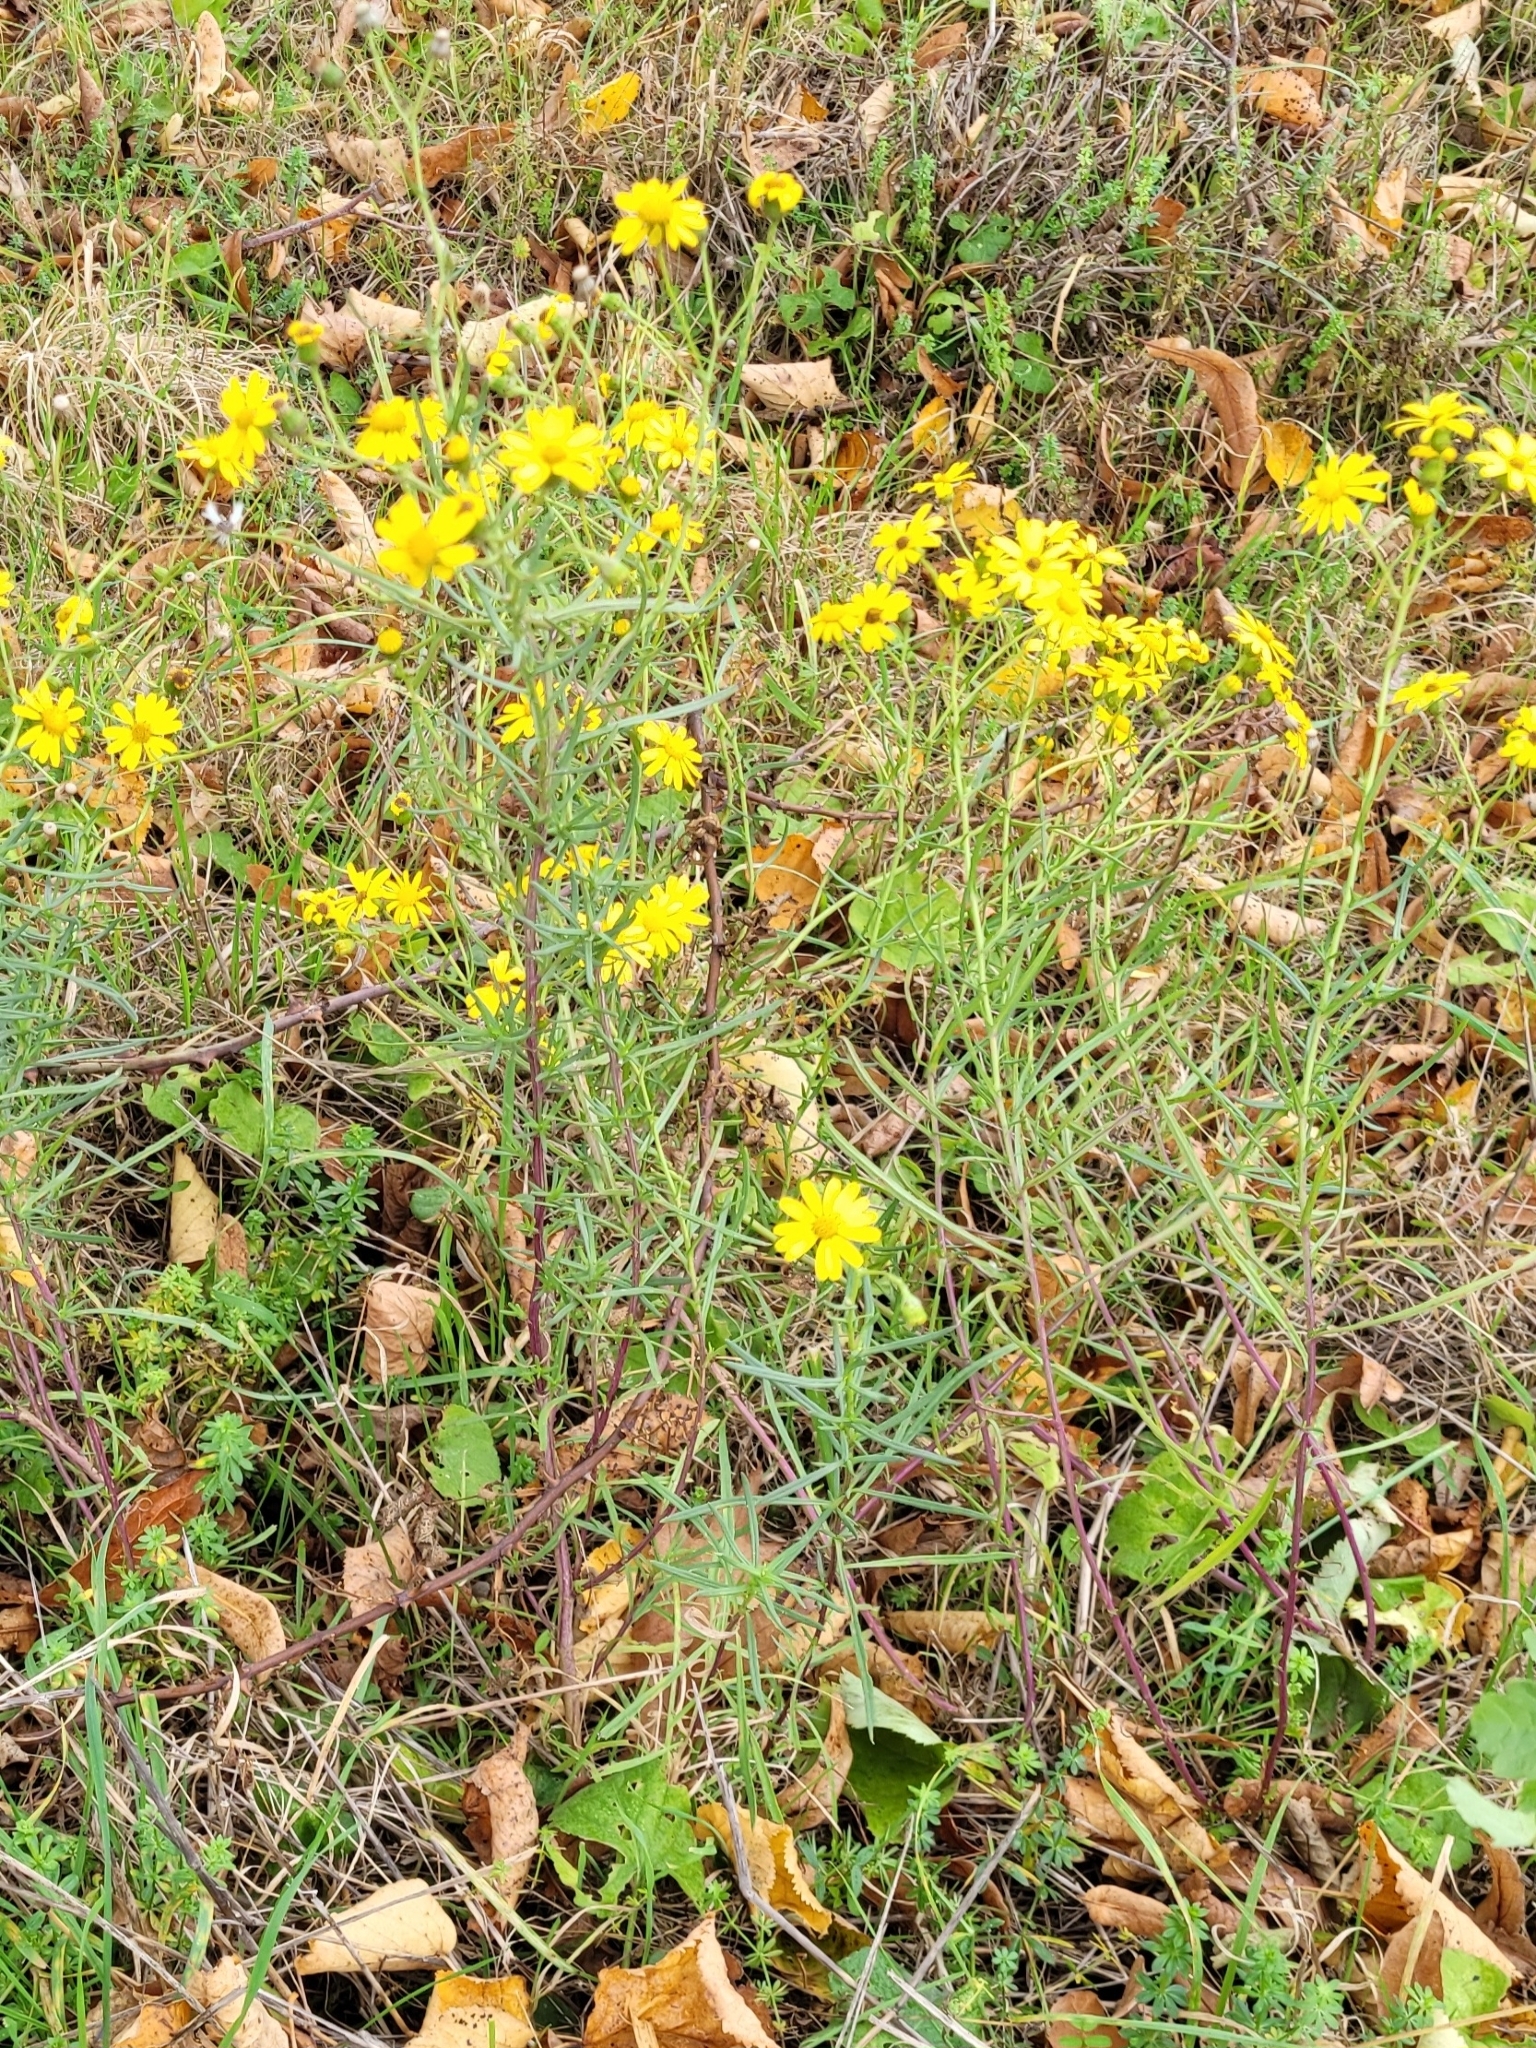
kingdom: Plantae
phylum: Tracheophyta
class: Magnoliopsida
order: Asterales
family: Asteraceae
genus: Senecio
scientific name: Senecio inaequidens
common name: Narrow-leaved ragwort
